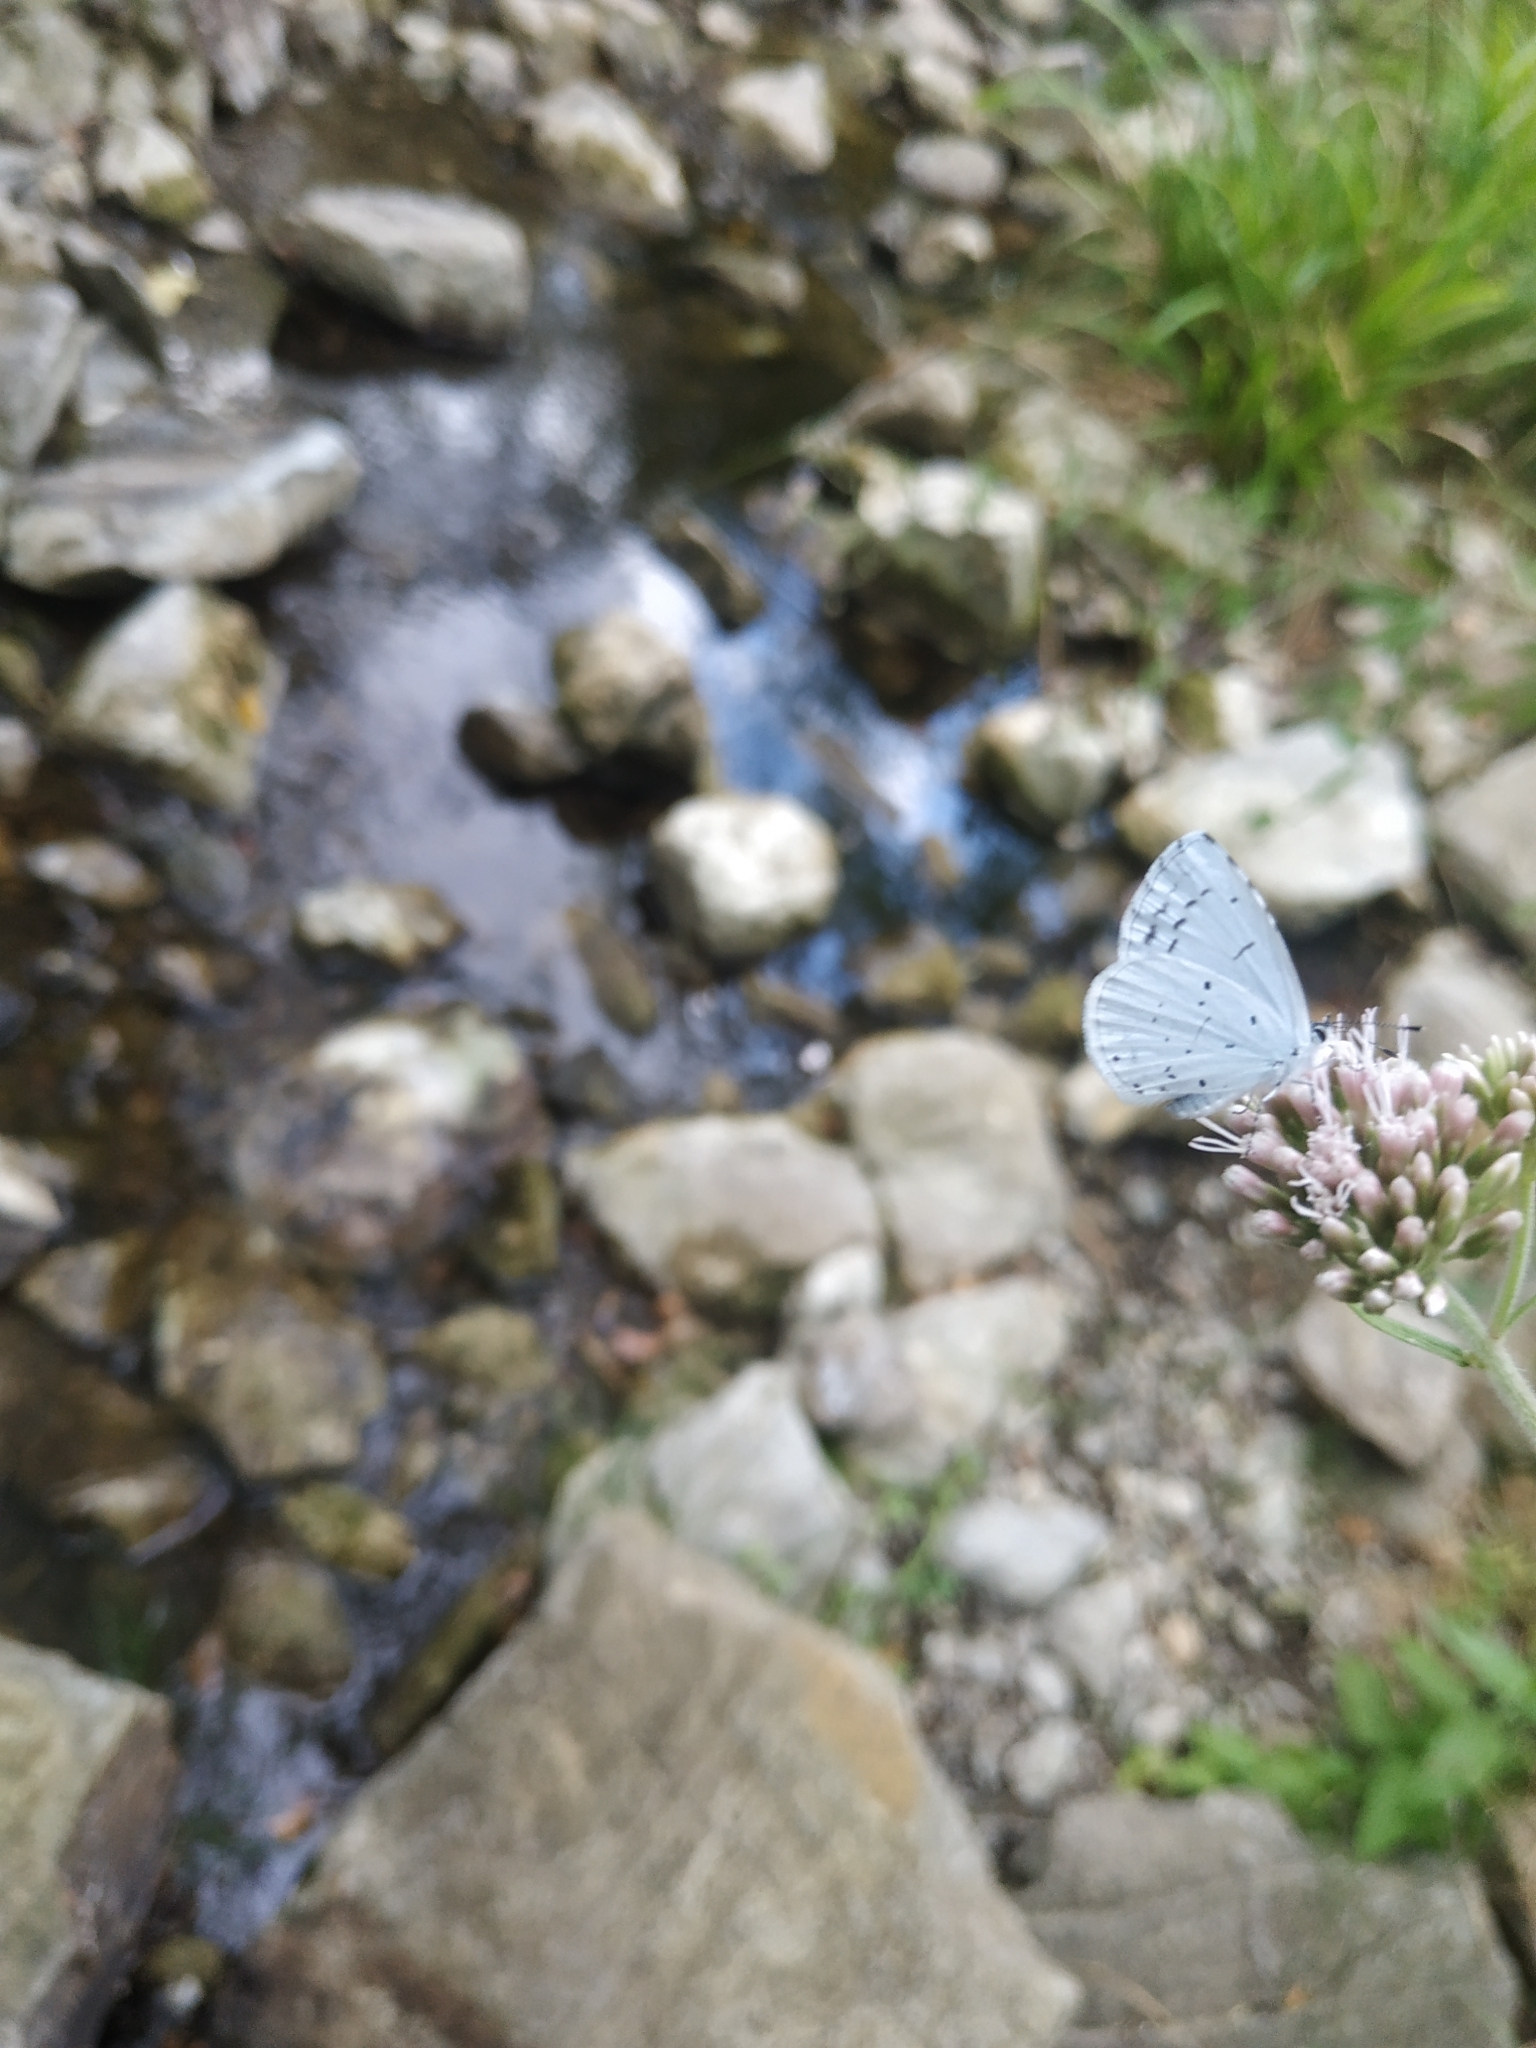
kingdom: Animalia
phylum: Arthropoda
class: Insecta
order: Lepidoptera
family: Lycaenidae
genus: Celastrina
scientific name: Celastrina argiolus
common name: Holly blue
